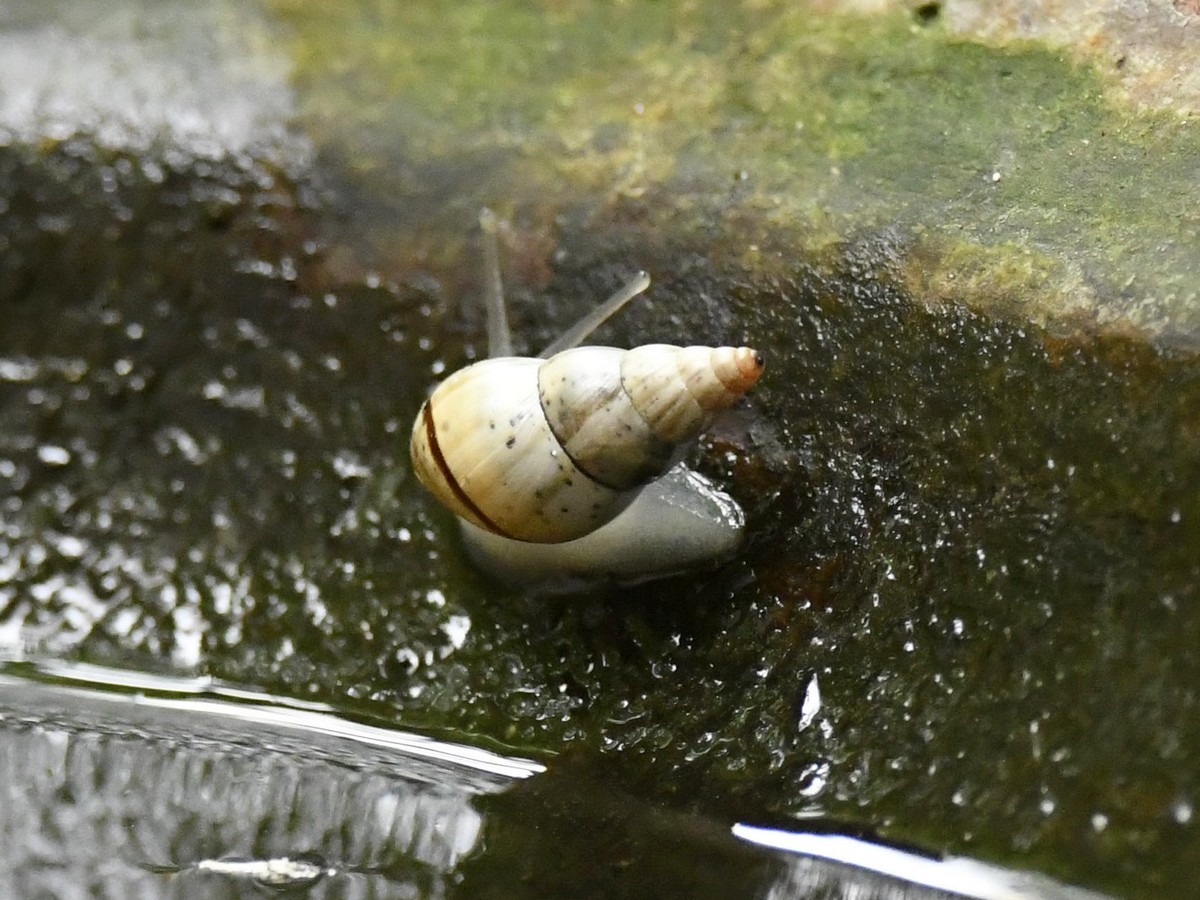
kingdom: Animalia
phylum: Mollusca
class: Gastropoda
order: Stylommatophora
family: Cerastidae
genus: Rachis
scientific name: Rachis punctata
